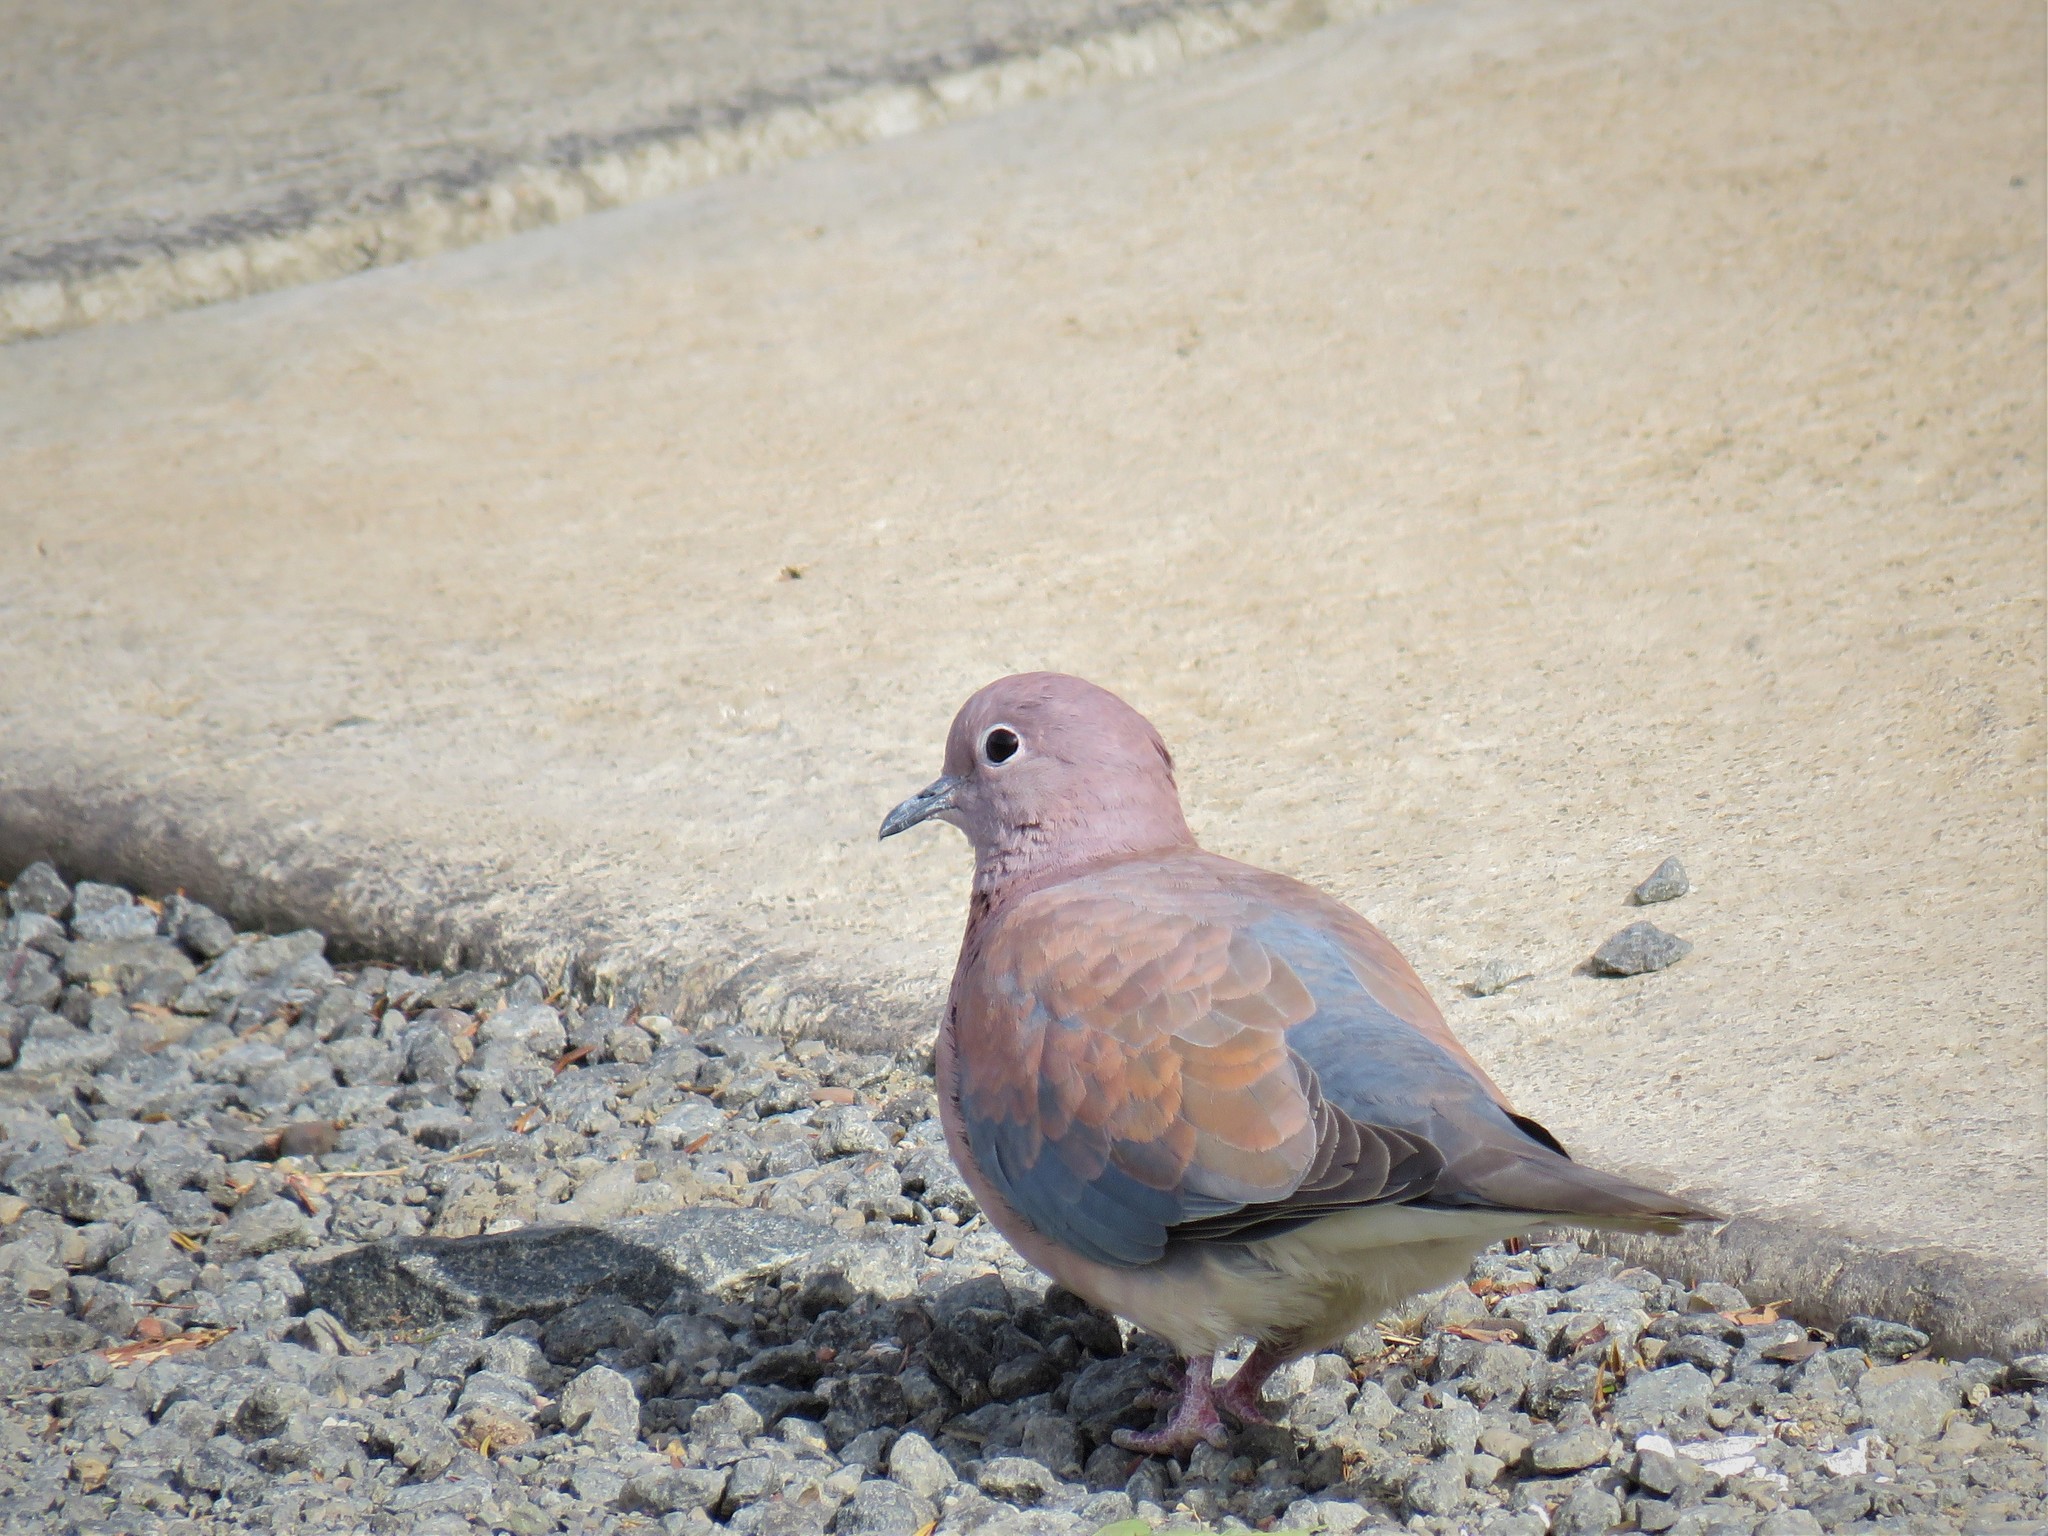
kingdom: Animalia
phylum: Chordata
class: Aves
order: Columbiformes
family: Columbidae
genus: Spilopelia
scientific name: Spilopelia senegalensis
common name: Laughing dove
